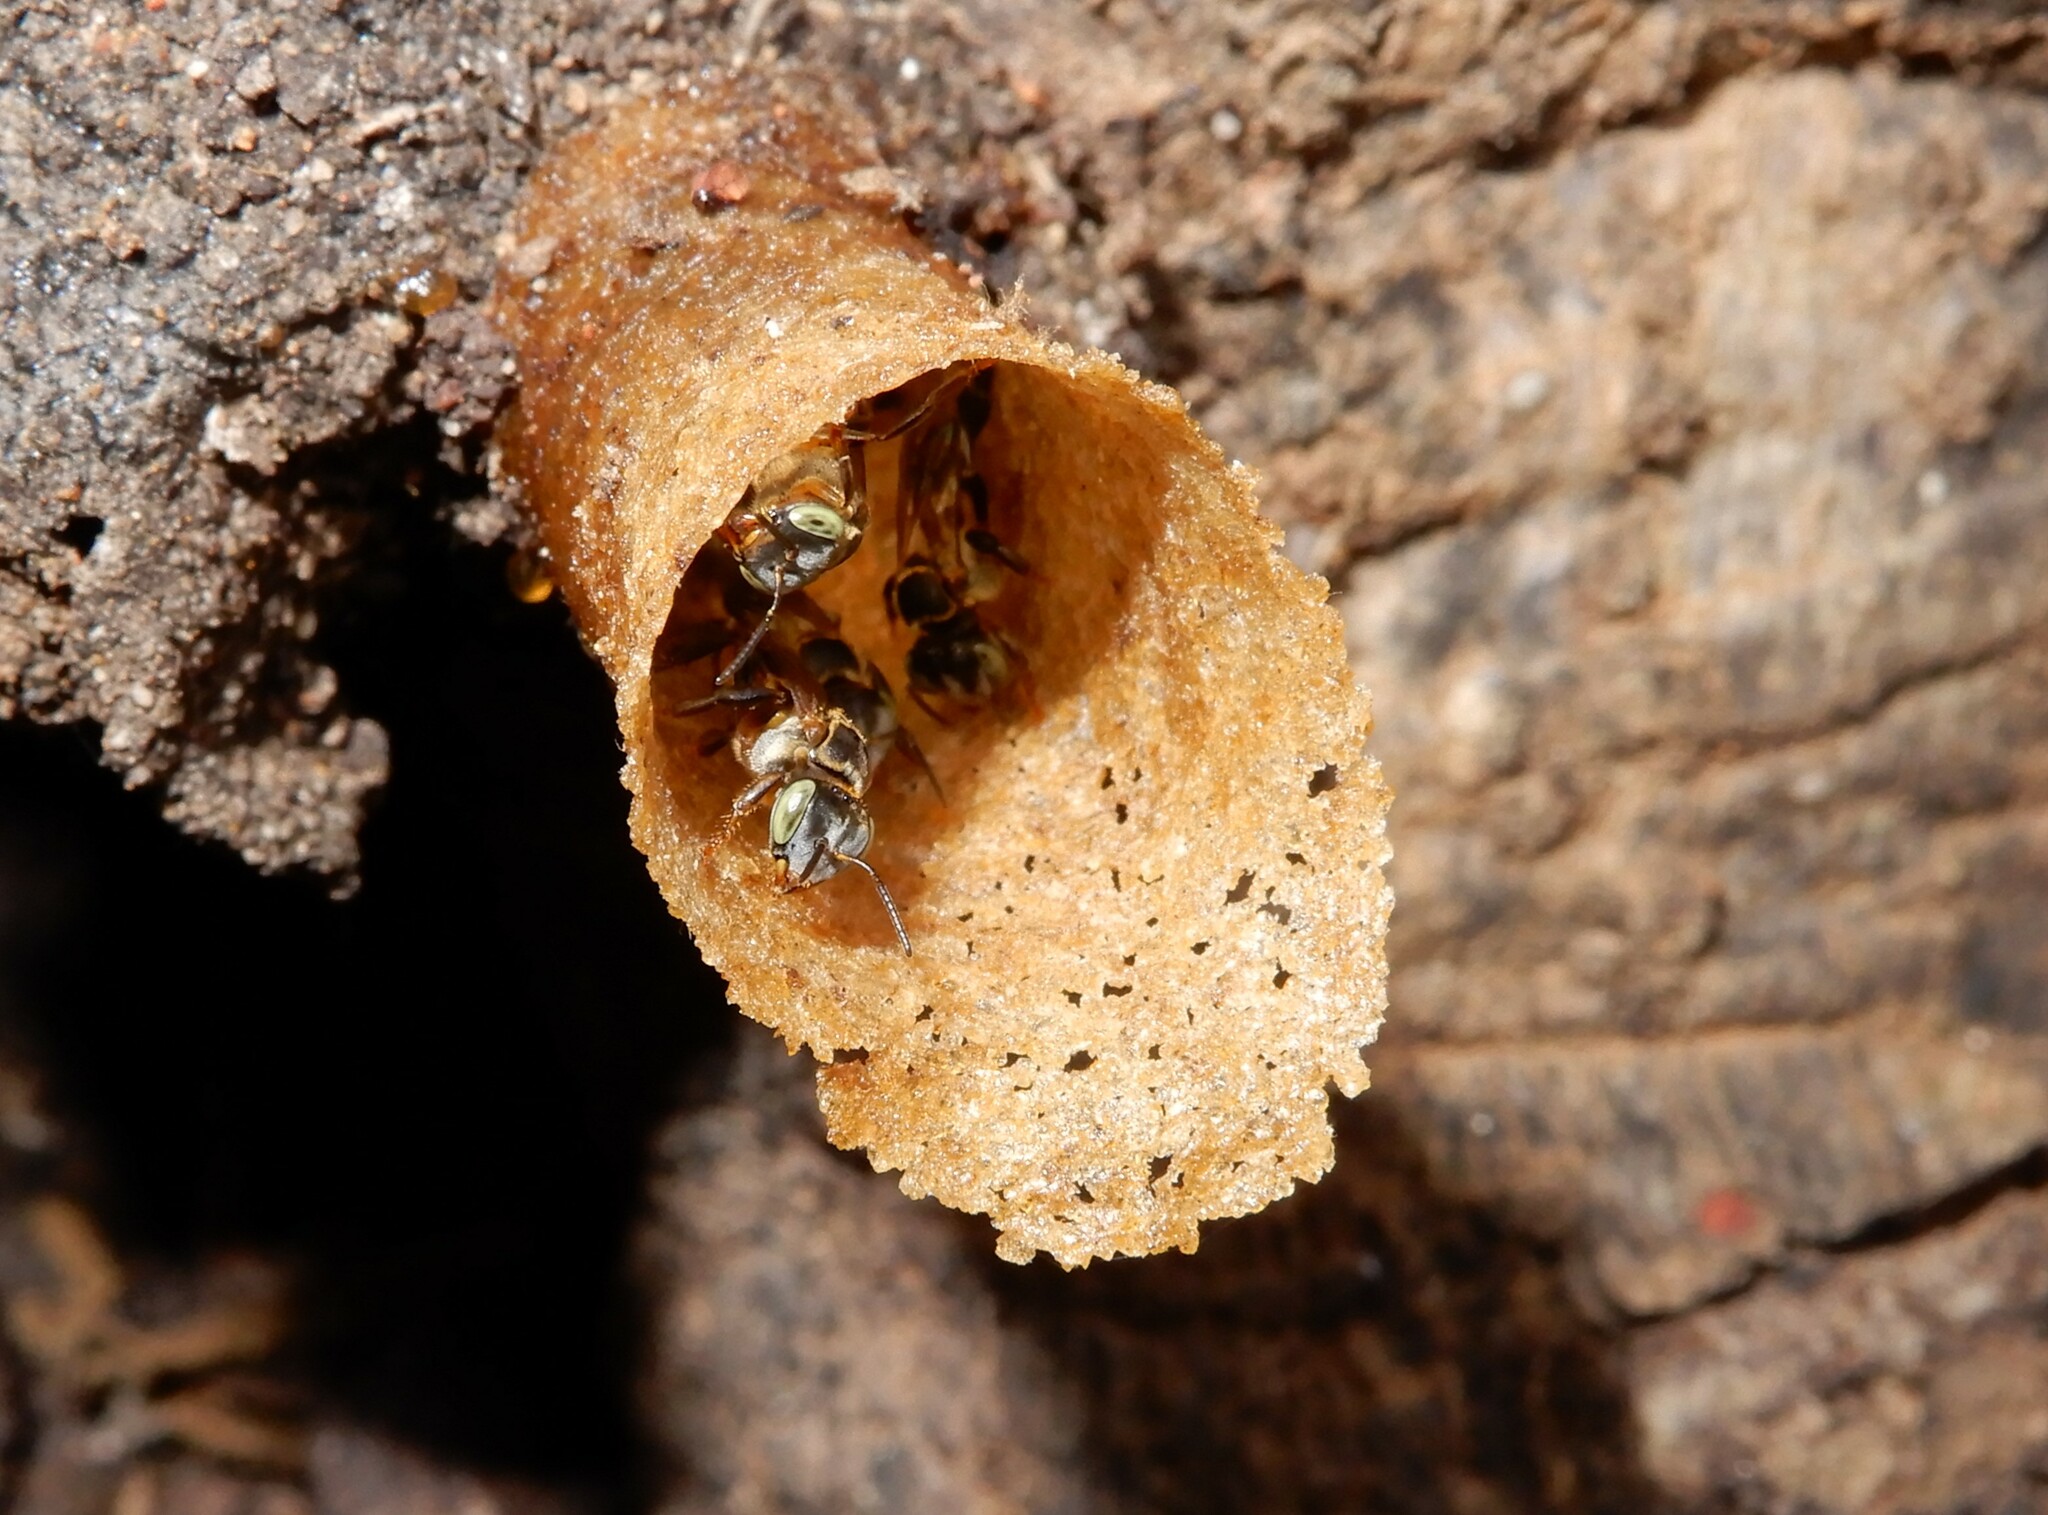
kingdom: Animalia
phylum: Arthropoda
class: Insecta
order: Hymenoptera
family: Apidae
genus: Lepidotrigona
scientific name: Lepidotrigona terminata
